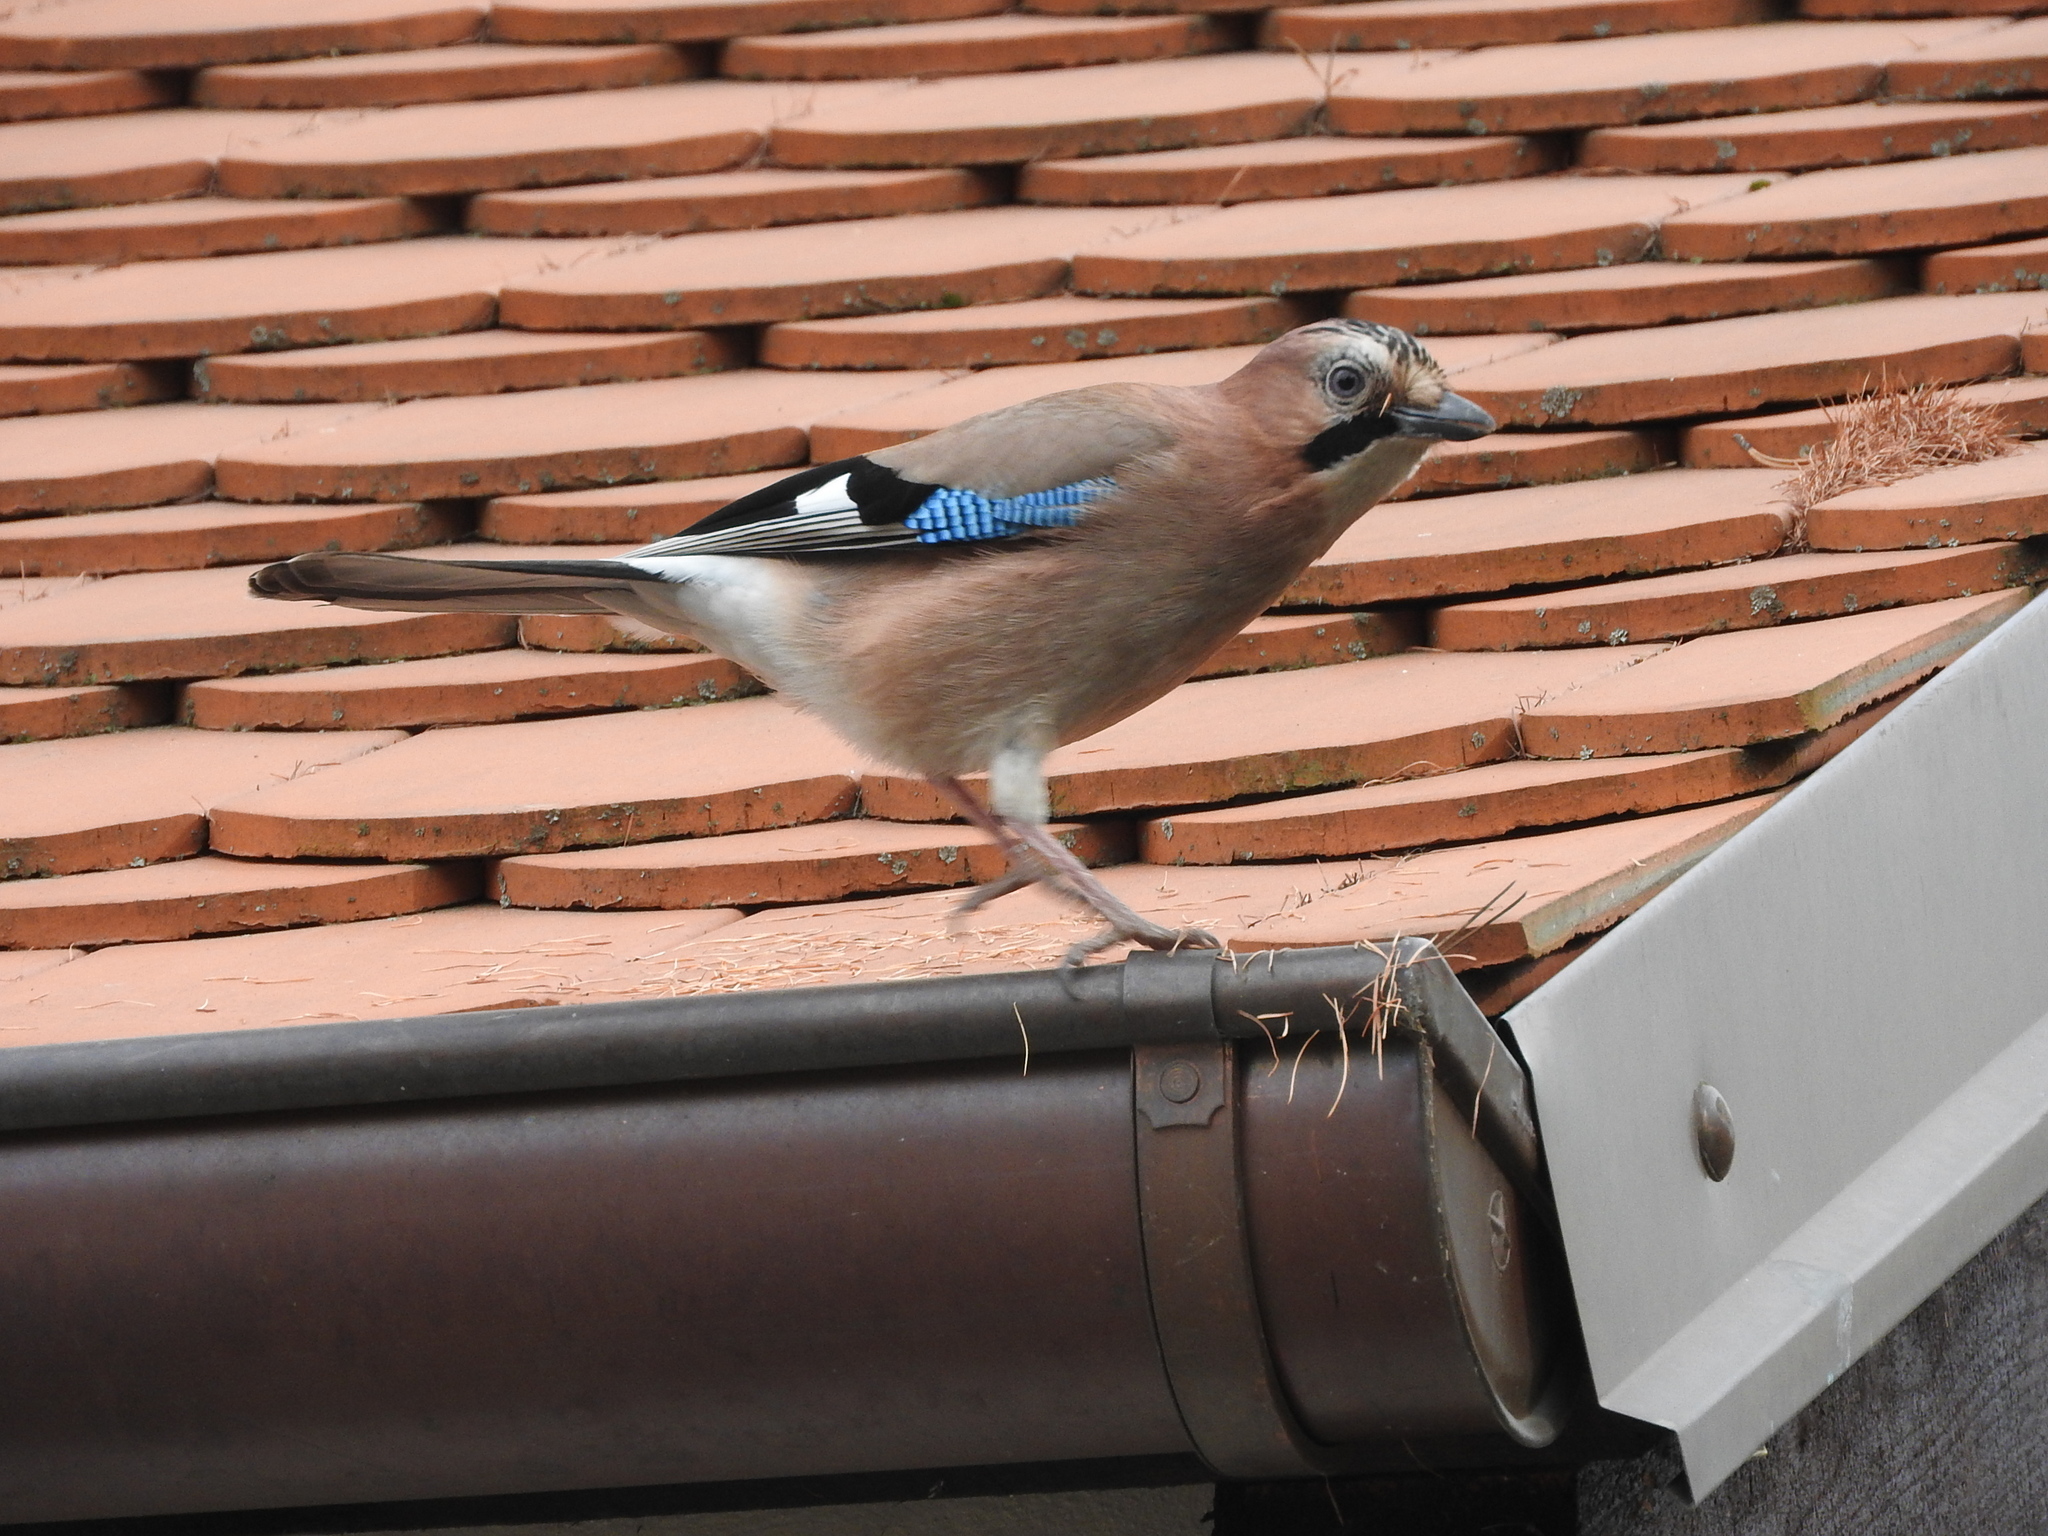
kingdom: Animalia
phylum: Chordata
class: Aves
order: Passeriformes
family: Corvidae
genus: Garrulus
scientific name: Garrulus glandarius
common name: Eurasian jay
